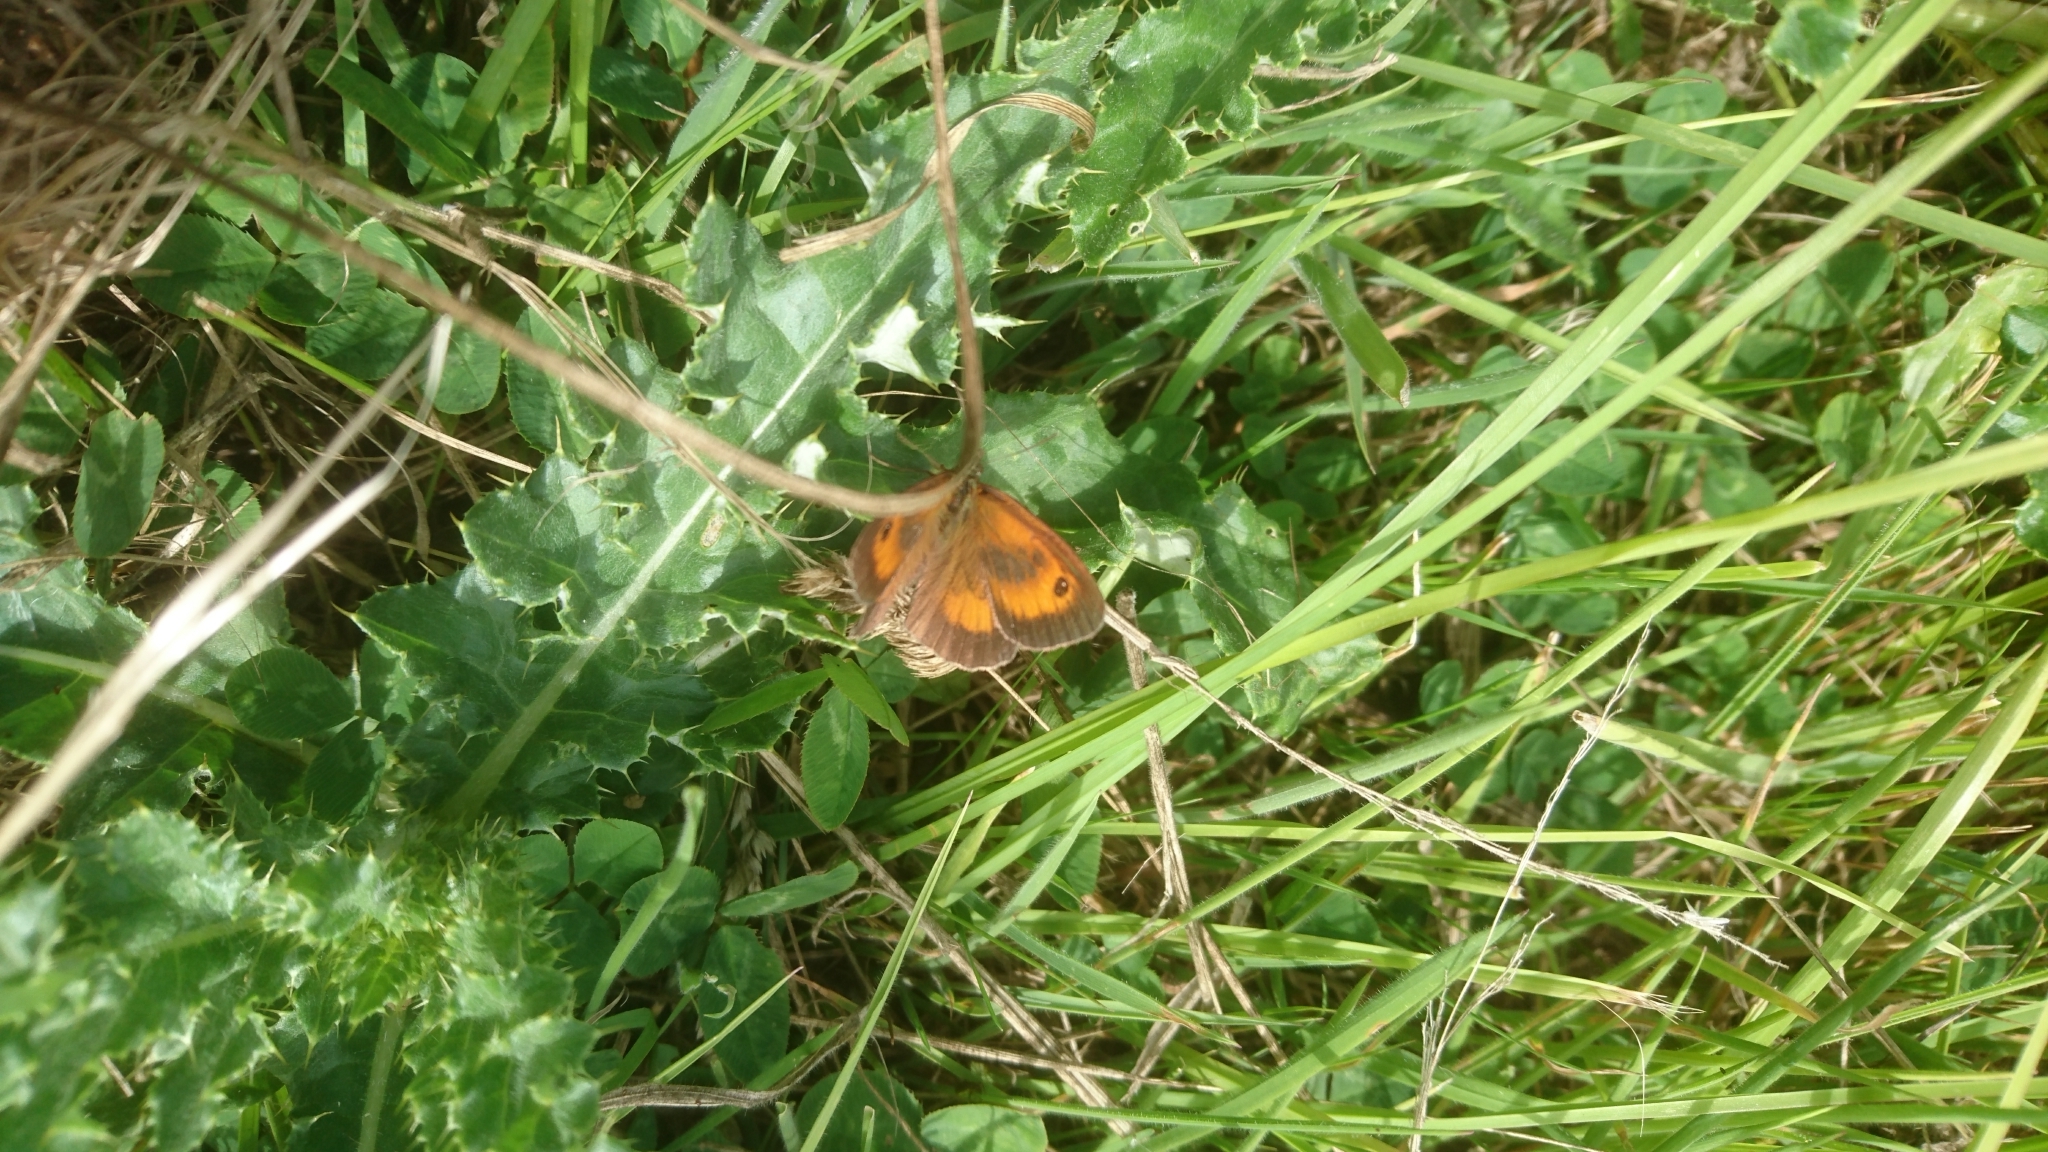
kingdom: Animalia
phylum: Arthropoda
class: Insecta
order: Lepidoptera
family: Nymphalidae
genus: Pyronia
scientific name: Pyronia tithonus
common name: Gatekeeper
